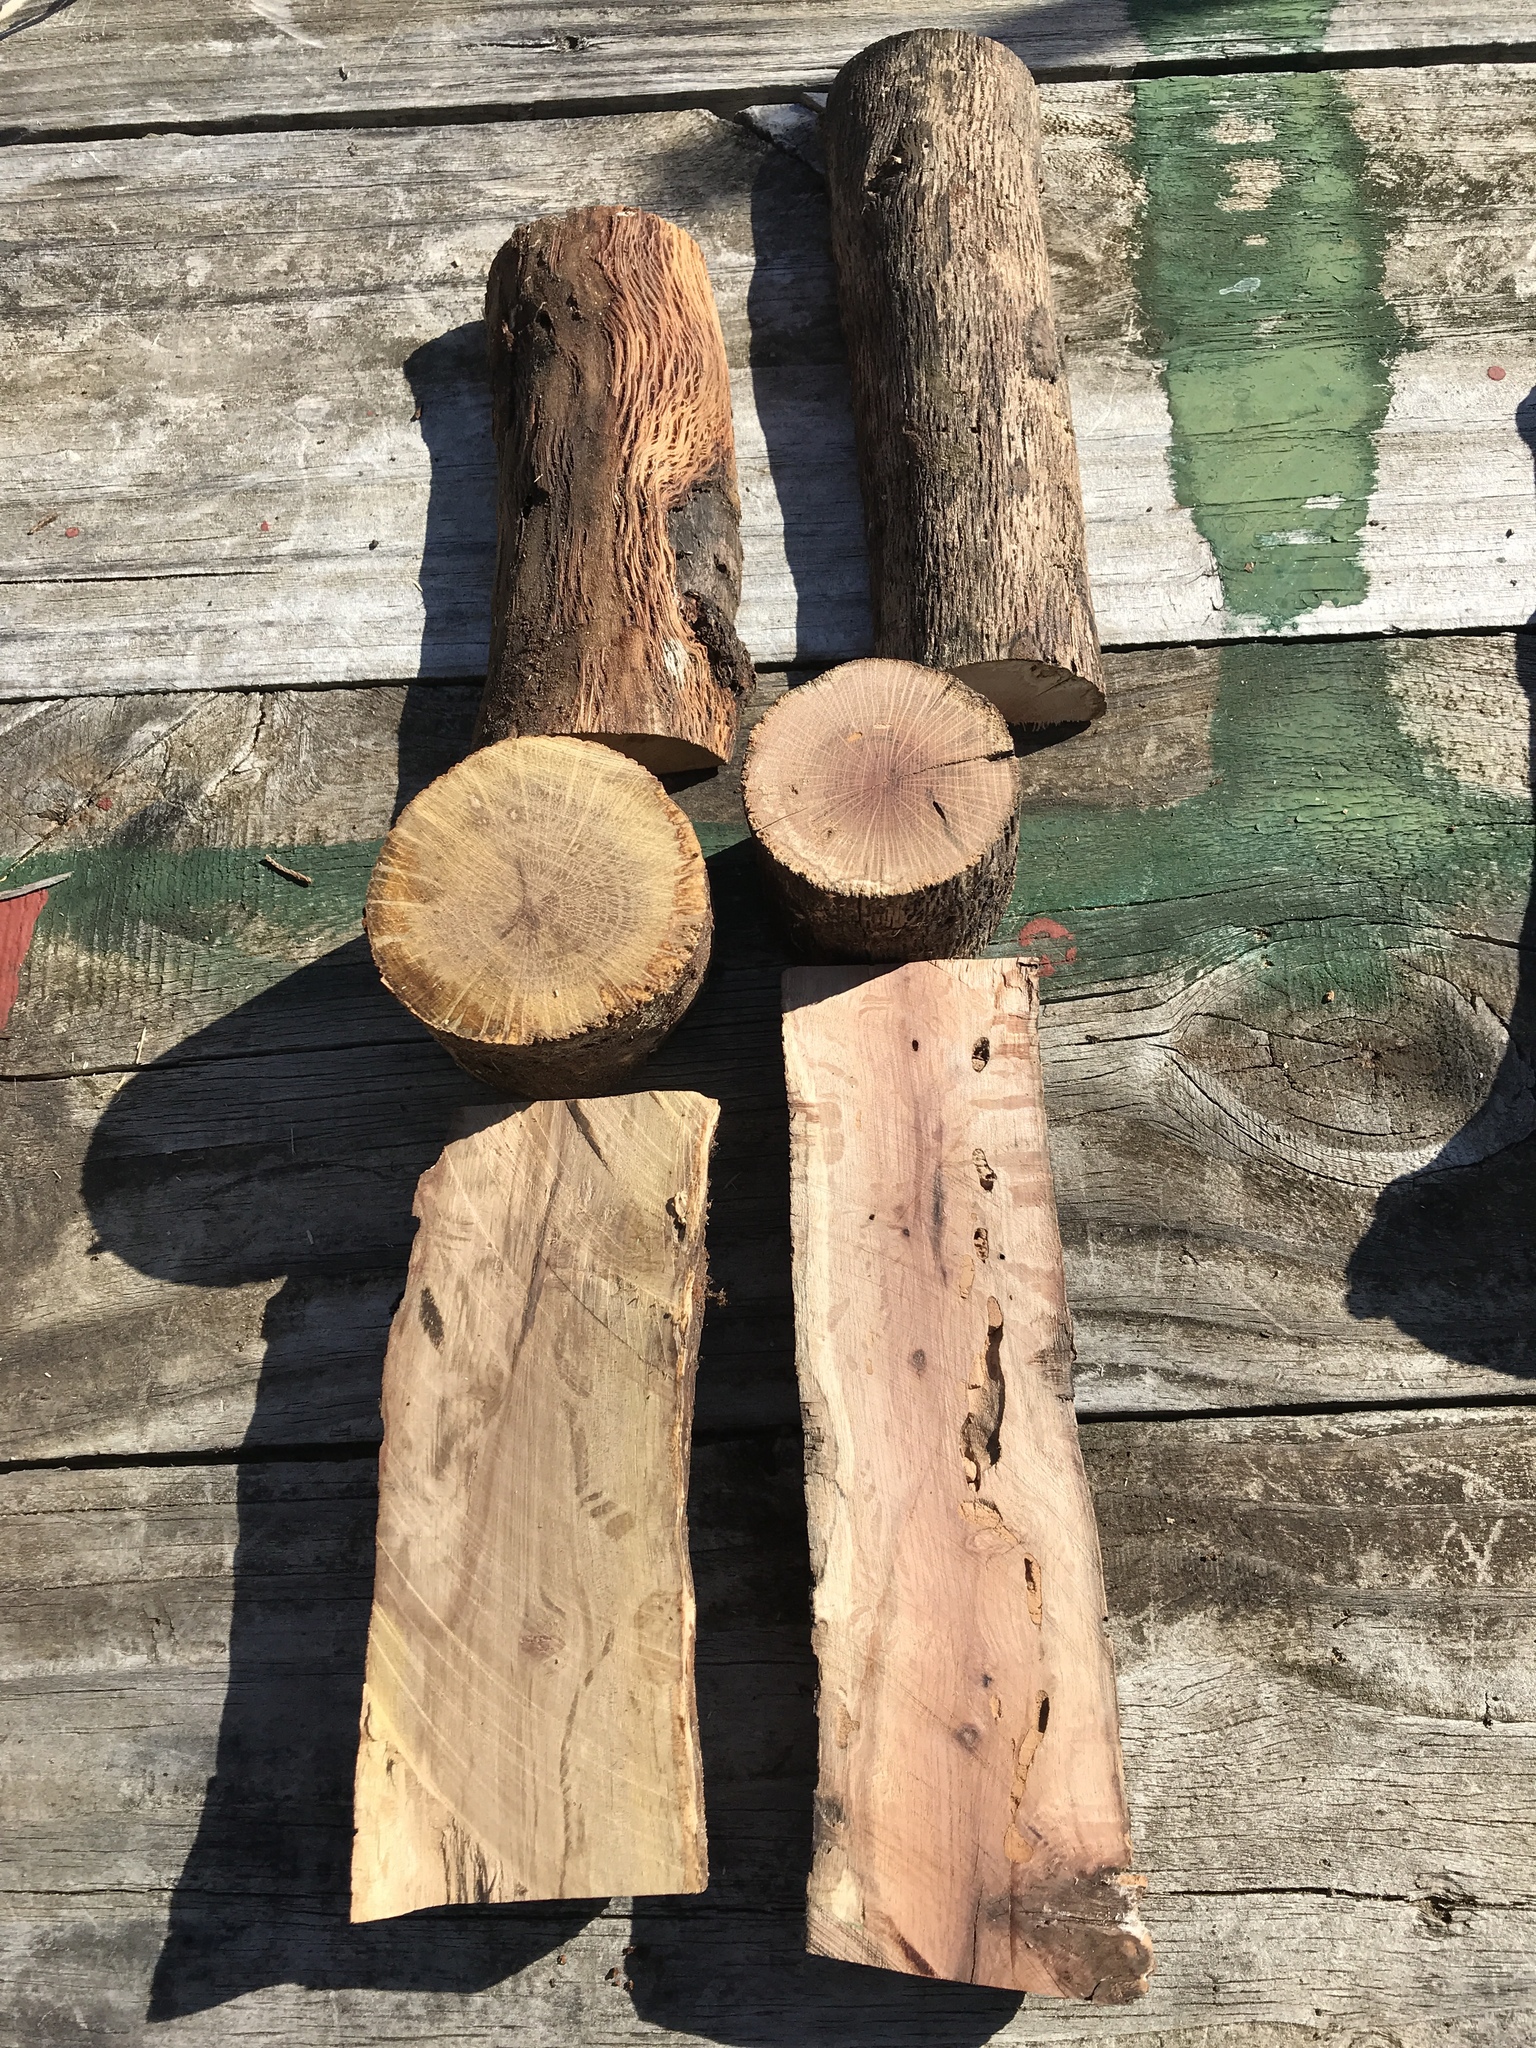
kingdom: Plantae
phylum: Tracheophyta
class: Magnoliopsida
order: Fagales
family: Fagaceae
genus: Quercus
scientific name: Quercus marilandica
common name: Blackjack oak
